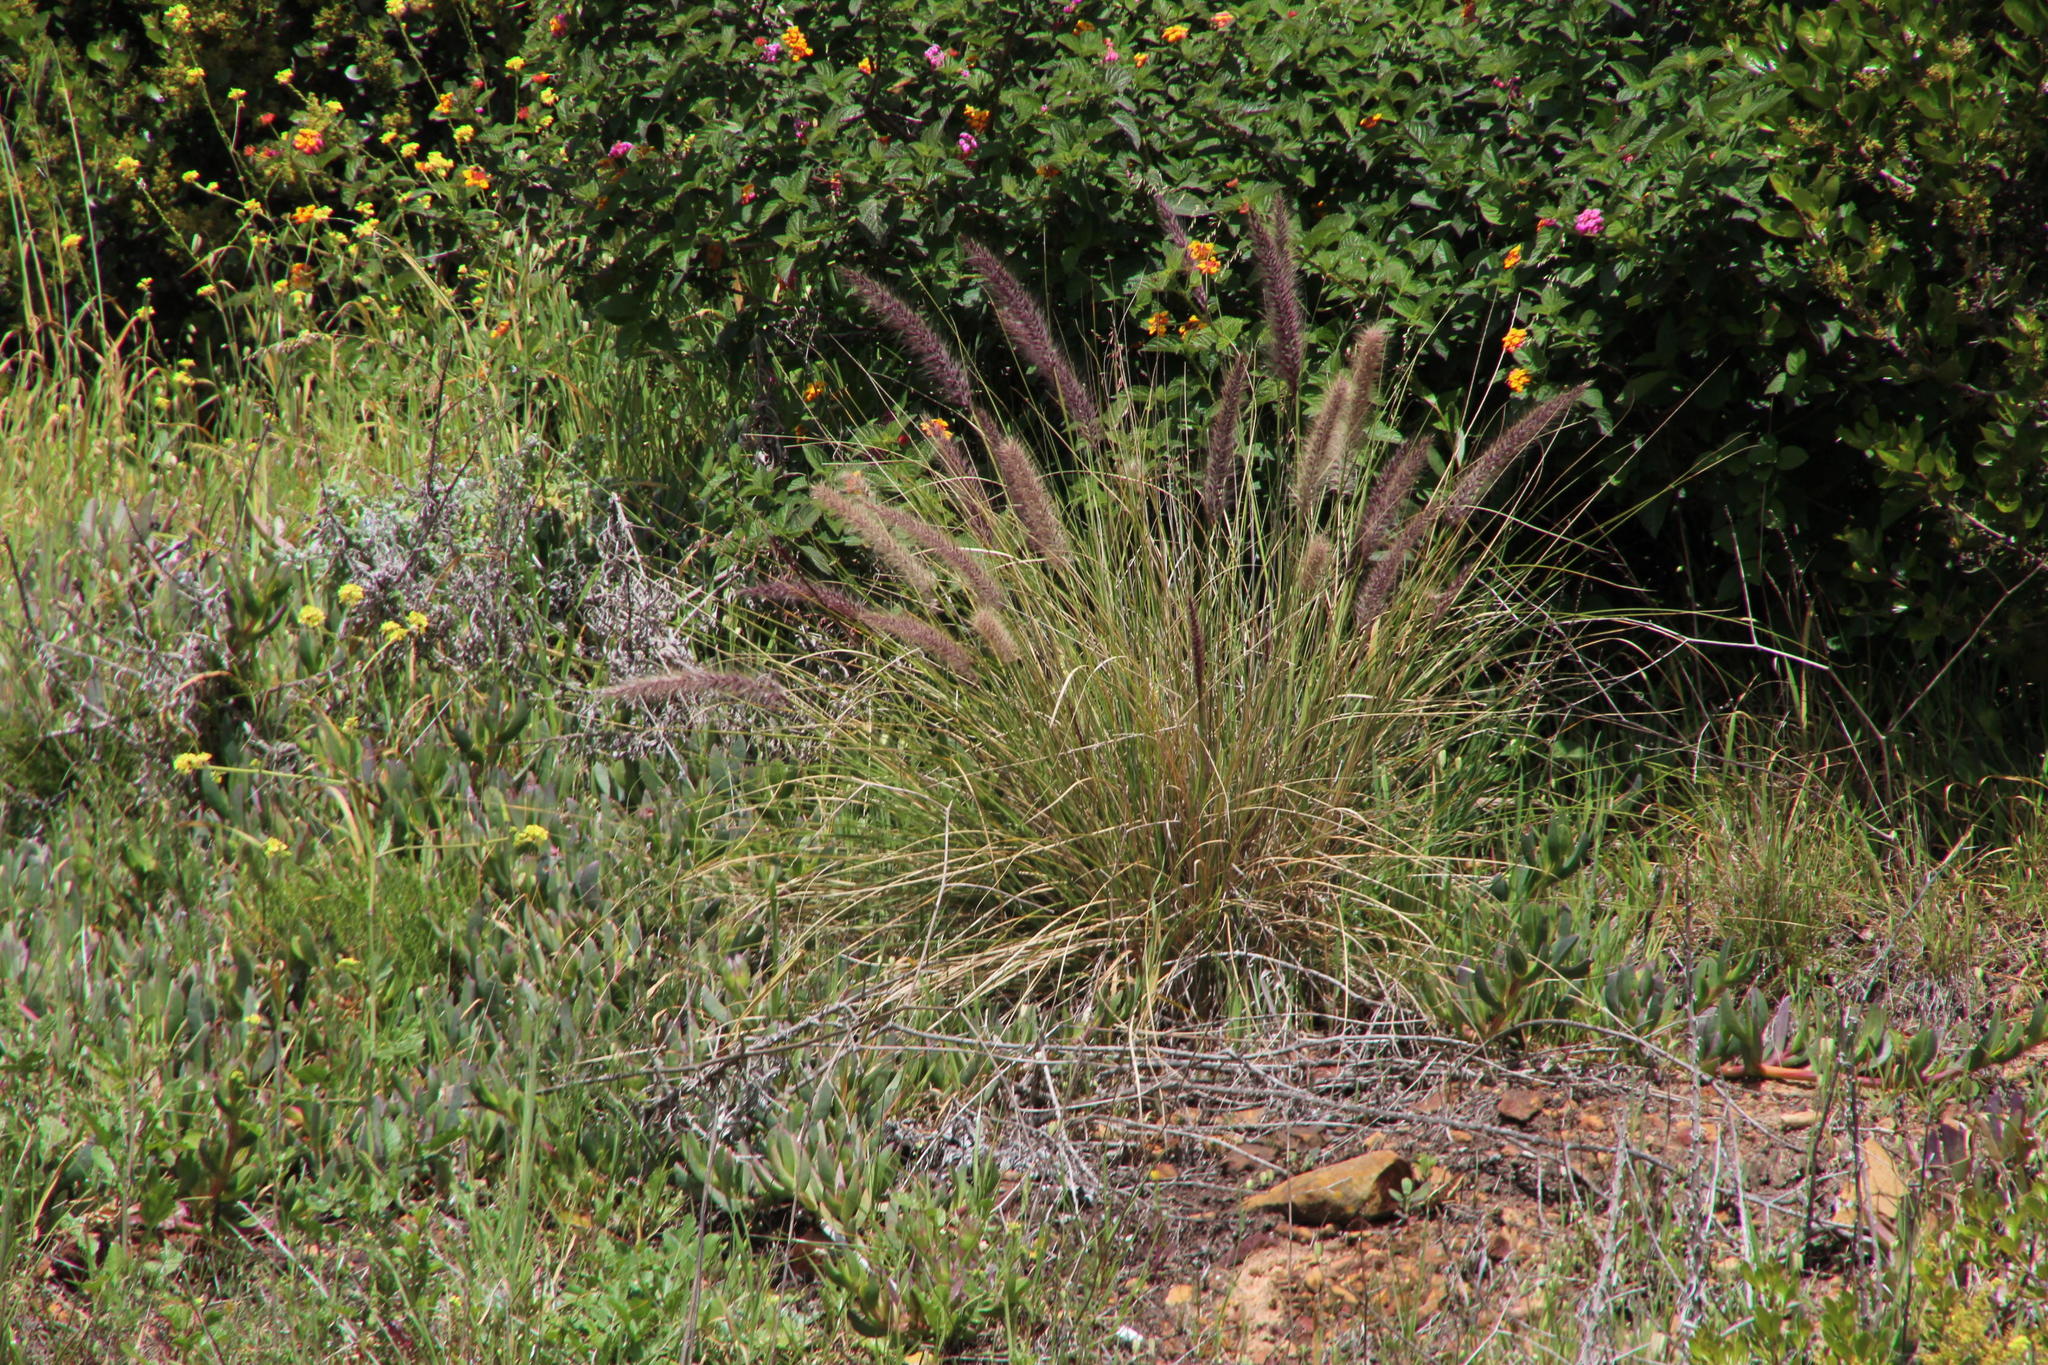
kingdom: Plantae
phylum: Tracheophyta
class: Liliopsida
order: Poales
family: Poaceae
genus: Cenchrus
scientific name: Cenchrus setaceus
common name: Crimson fountaingrass
